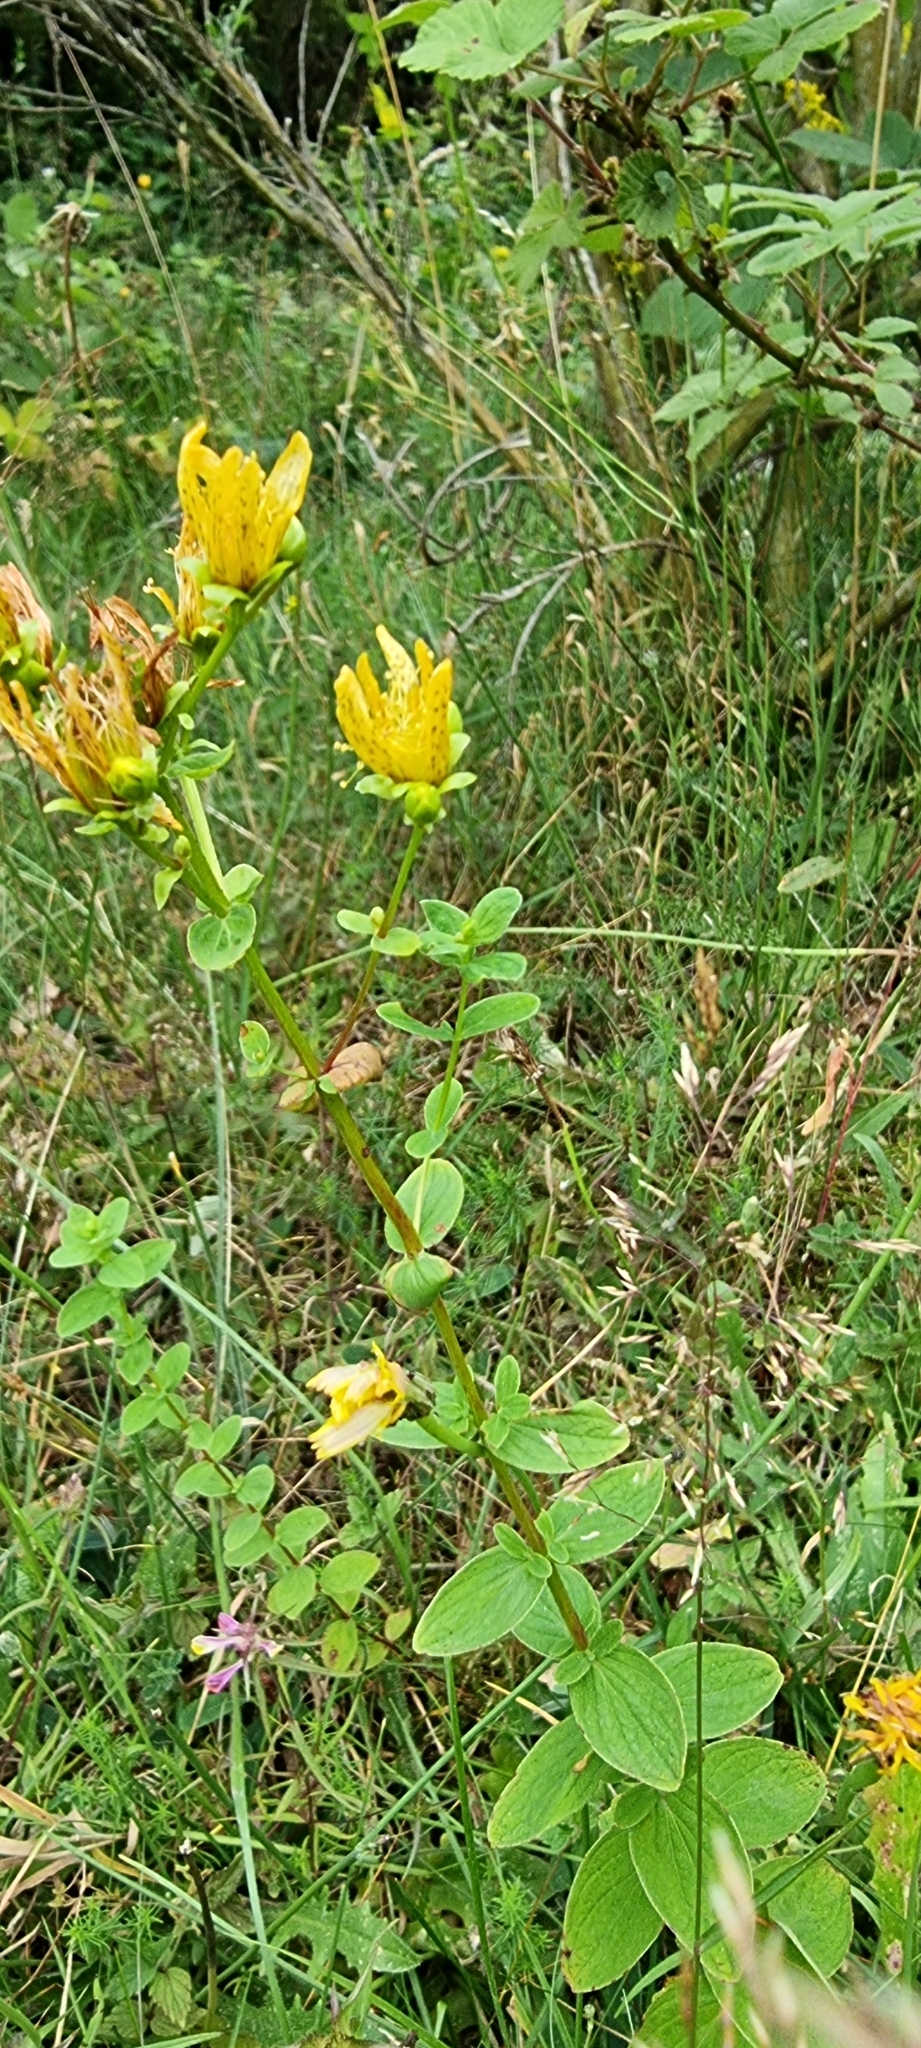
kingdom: Plantae
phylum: Tracheophyta
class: Magnoliopsida
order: Malpighiales
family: Hypericaceae
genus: Hypericum
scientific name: Hypericum maculatum
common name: Imperforate st. john's-wort
